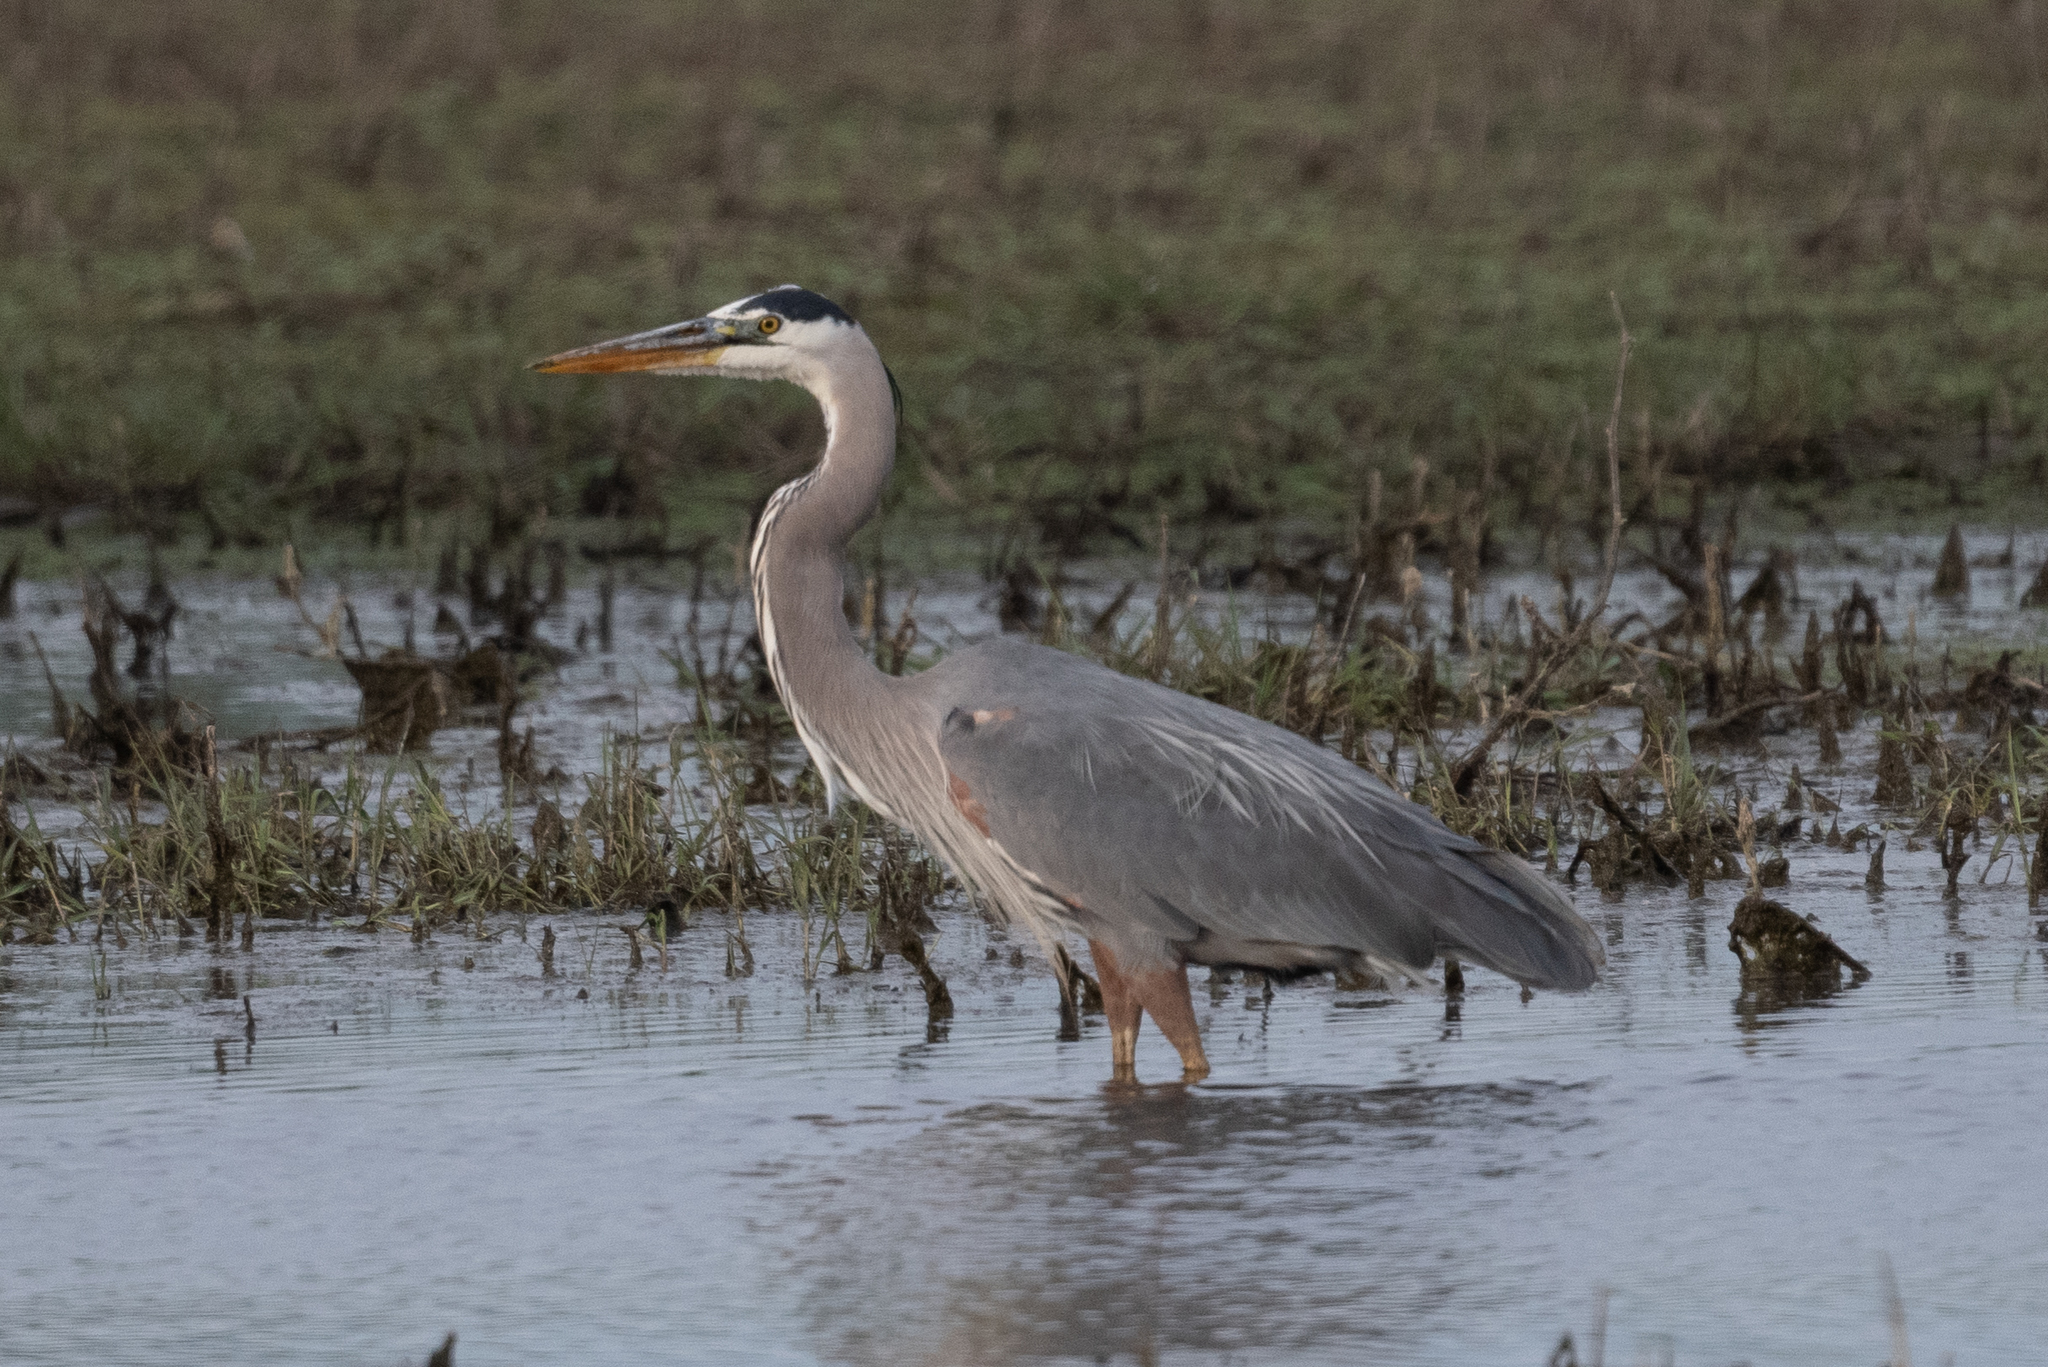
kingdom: Animalia
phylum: Chordata
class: Aves
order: Pelecaniformes
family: Ardeidae
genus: Ardea
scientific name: Ardea herodias
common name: Great blue heron
